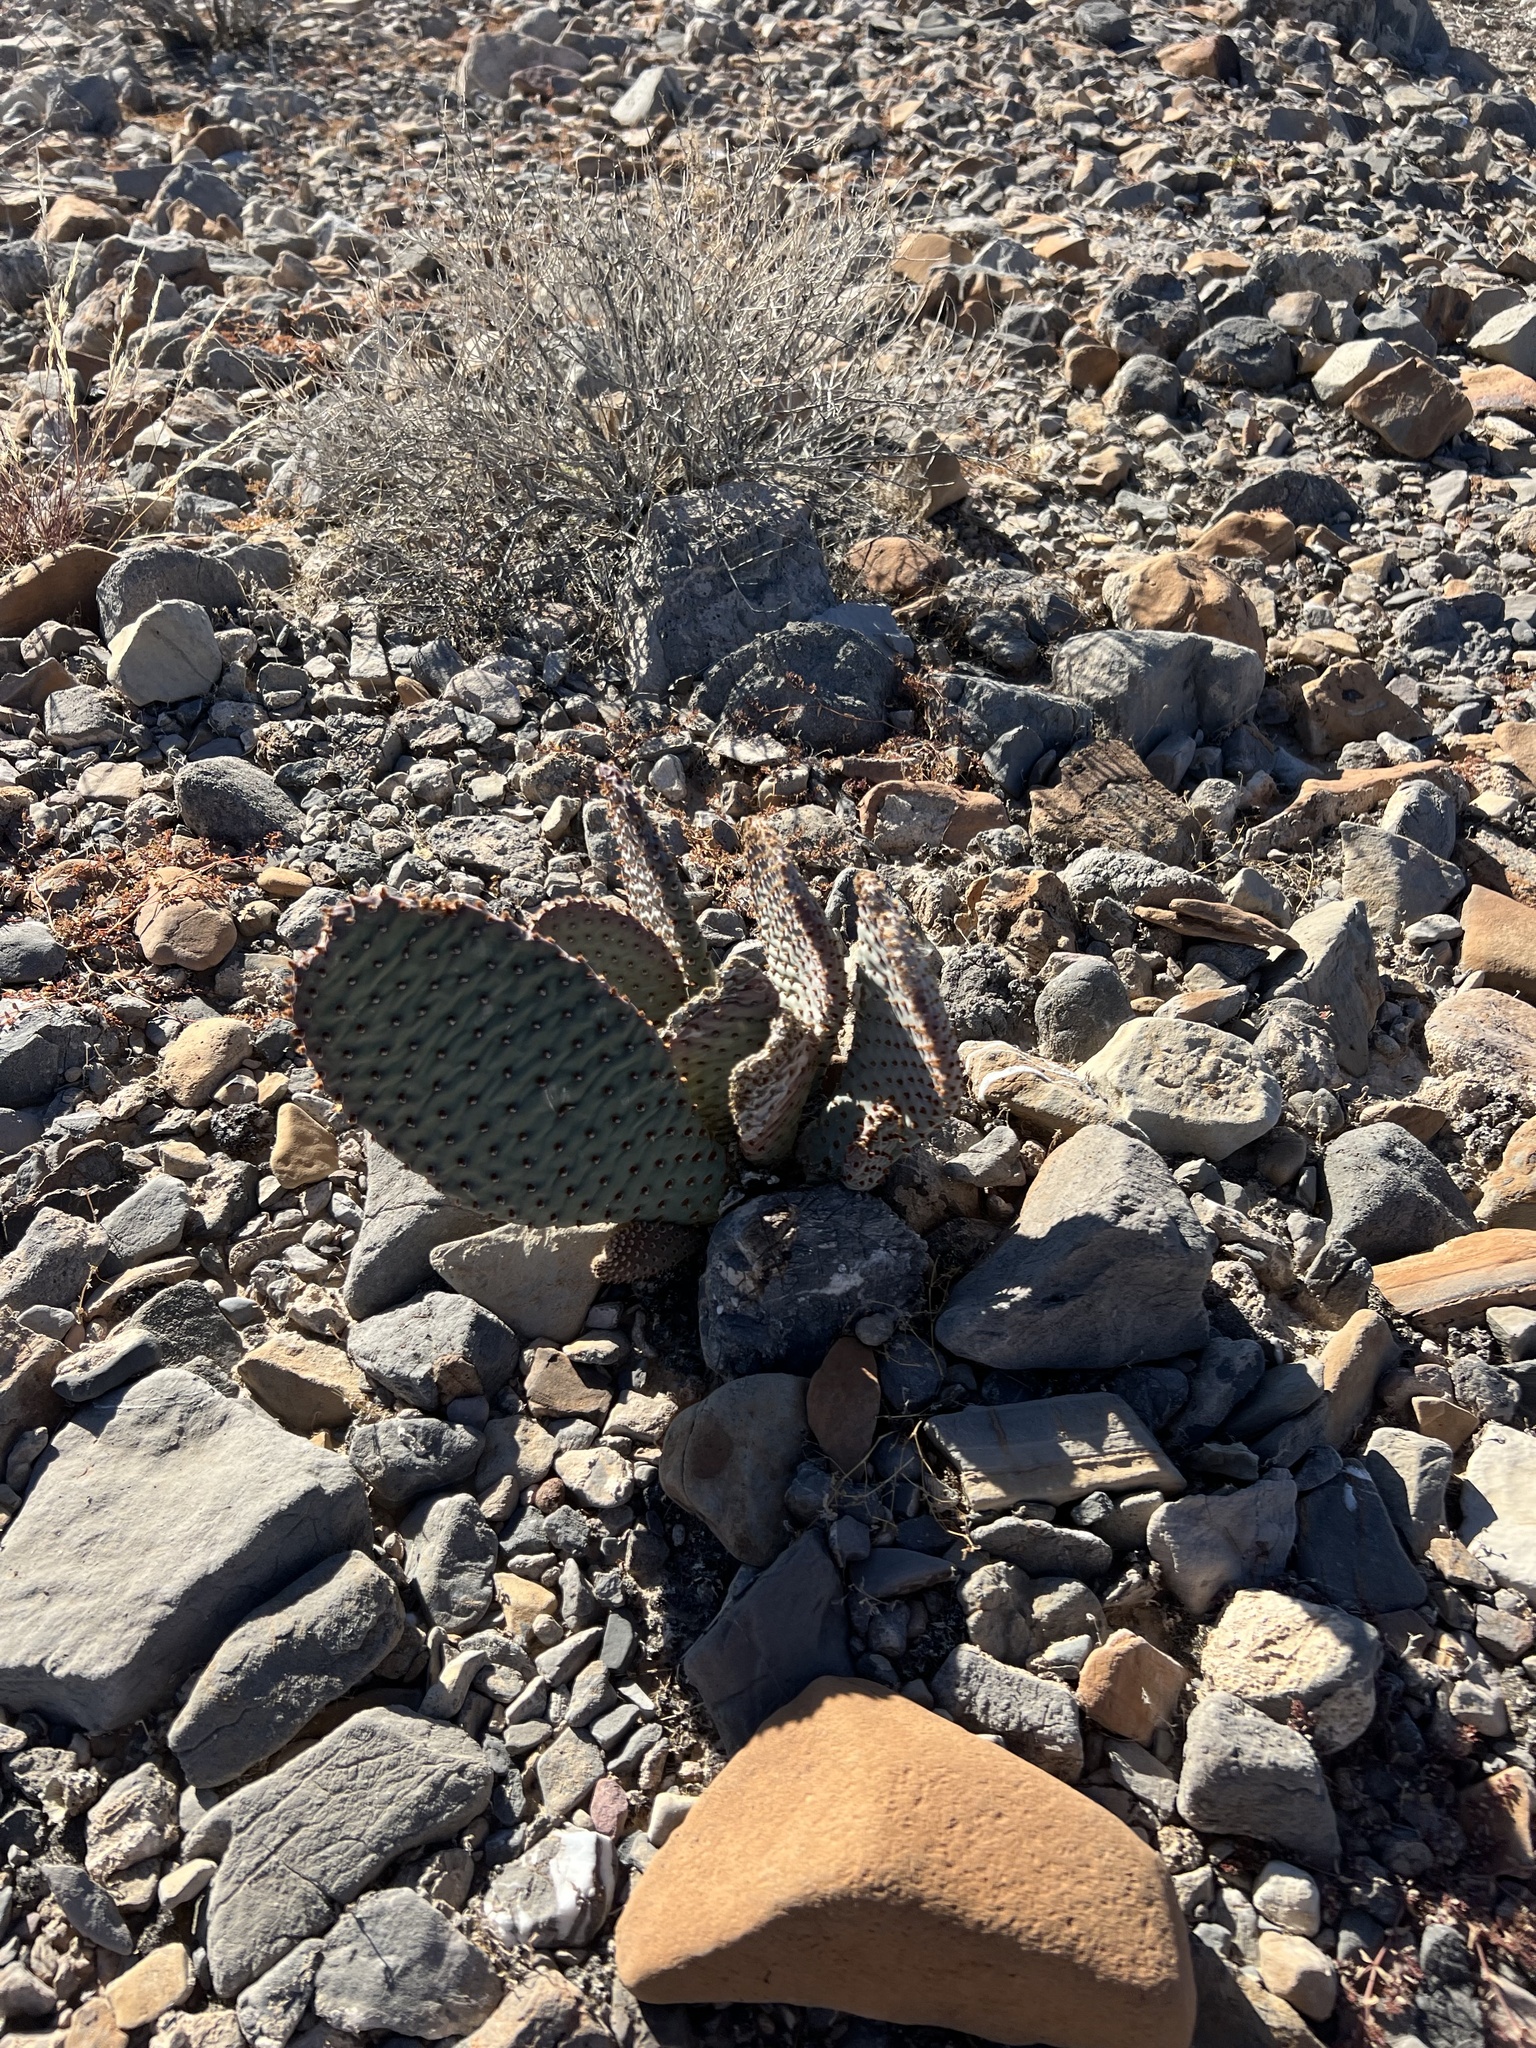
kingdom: Plantae
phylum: Tracheophyta
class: Magnoliopsida
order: Caryophyllales
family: Cactaceae
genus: Opuntia
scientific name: Opuntia basilaris
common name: Beavertail prickly-pear
